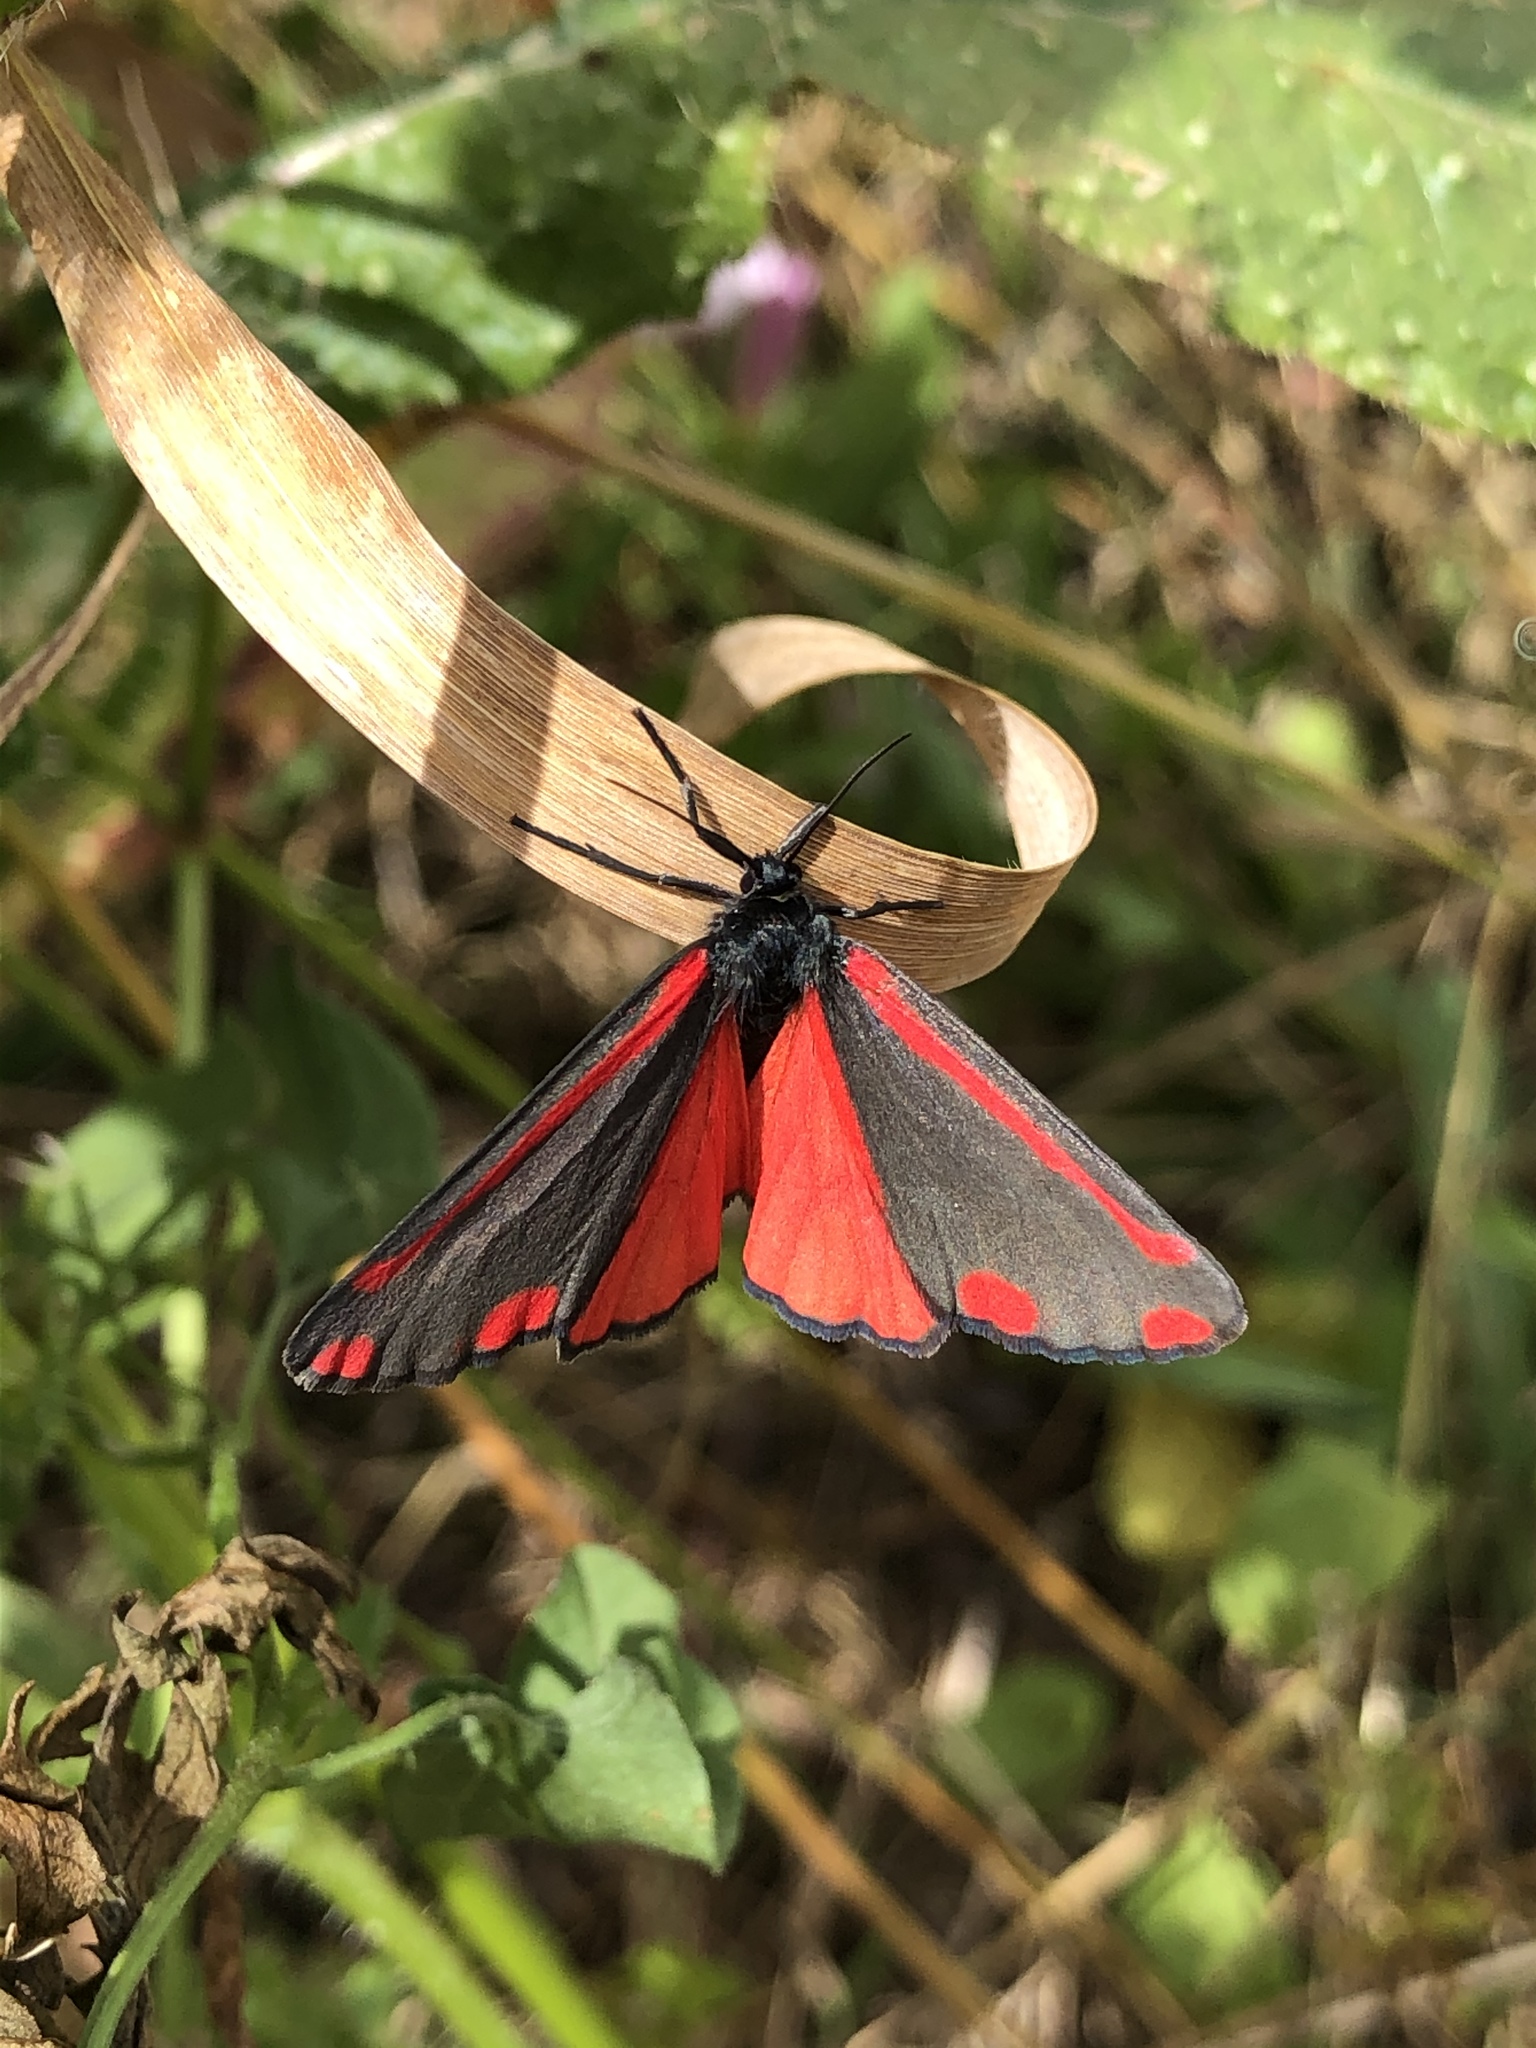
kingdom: Animalia
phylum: Arthropoda
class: Insecta
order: Lepidoptera
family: Erebidae
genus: Tyria
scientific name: Tyria jacobaeae
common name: Cinnabar
